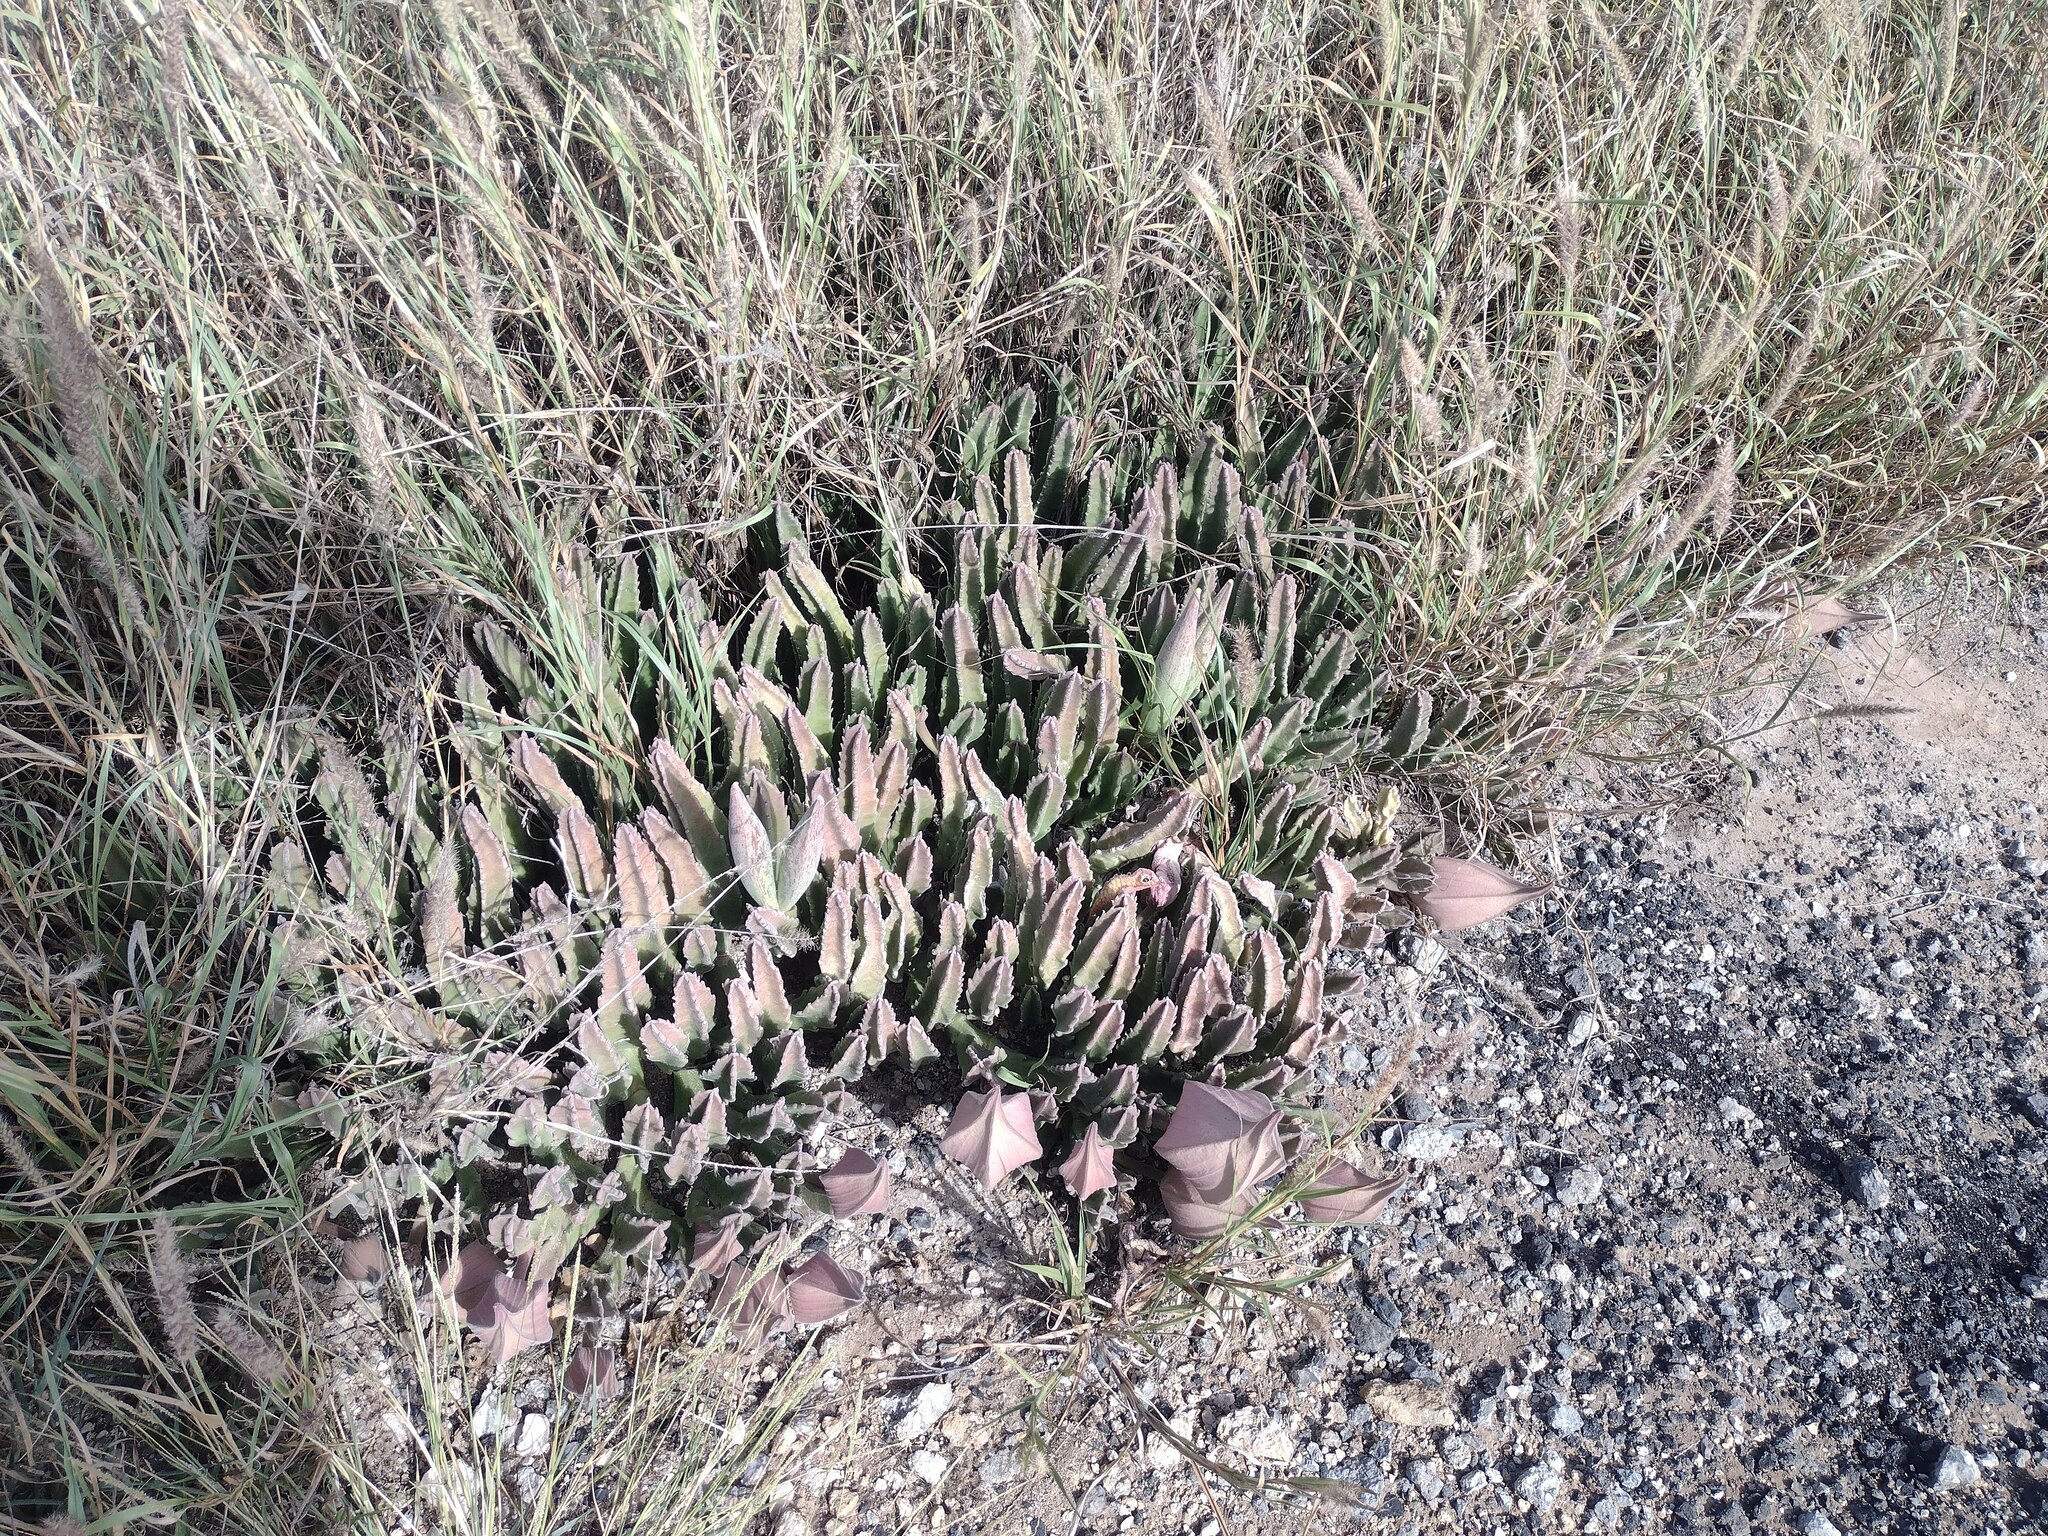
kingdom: Plantae
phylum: Tracheophyta
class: Magnoliopsida
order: Gentianales
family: Apocynaceae
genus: Ceropegia
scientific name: Ceropegia gigantea
